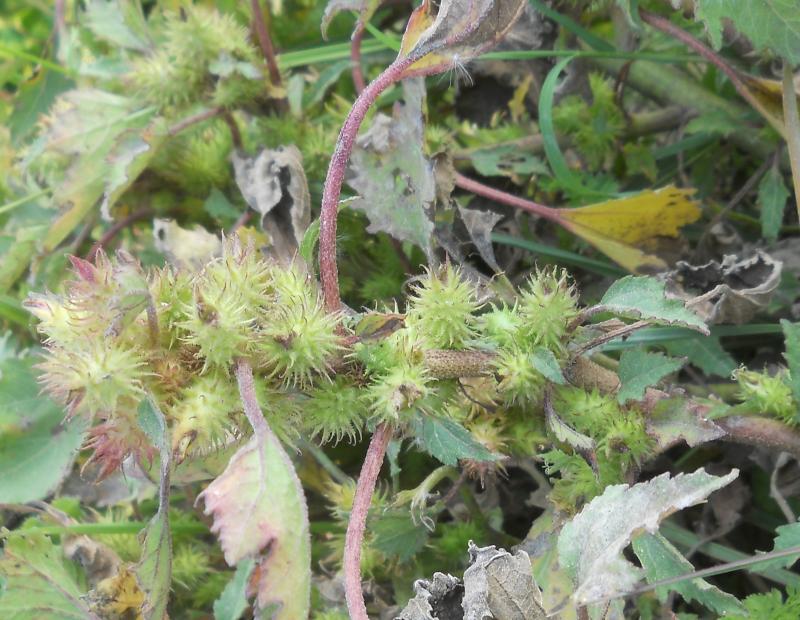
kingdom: Plantae
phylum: Tracheophyta
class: Magnoliopsida
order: Asterales
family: Asteraceae
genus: Xanthium
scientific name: Xanthium strumarium
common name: Rough cocklebur
